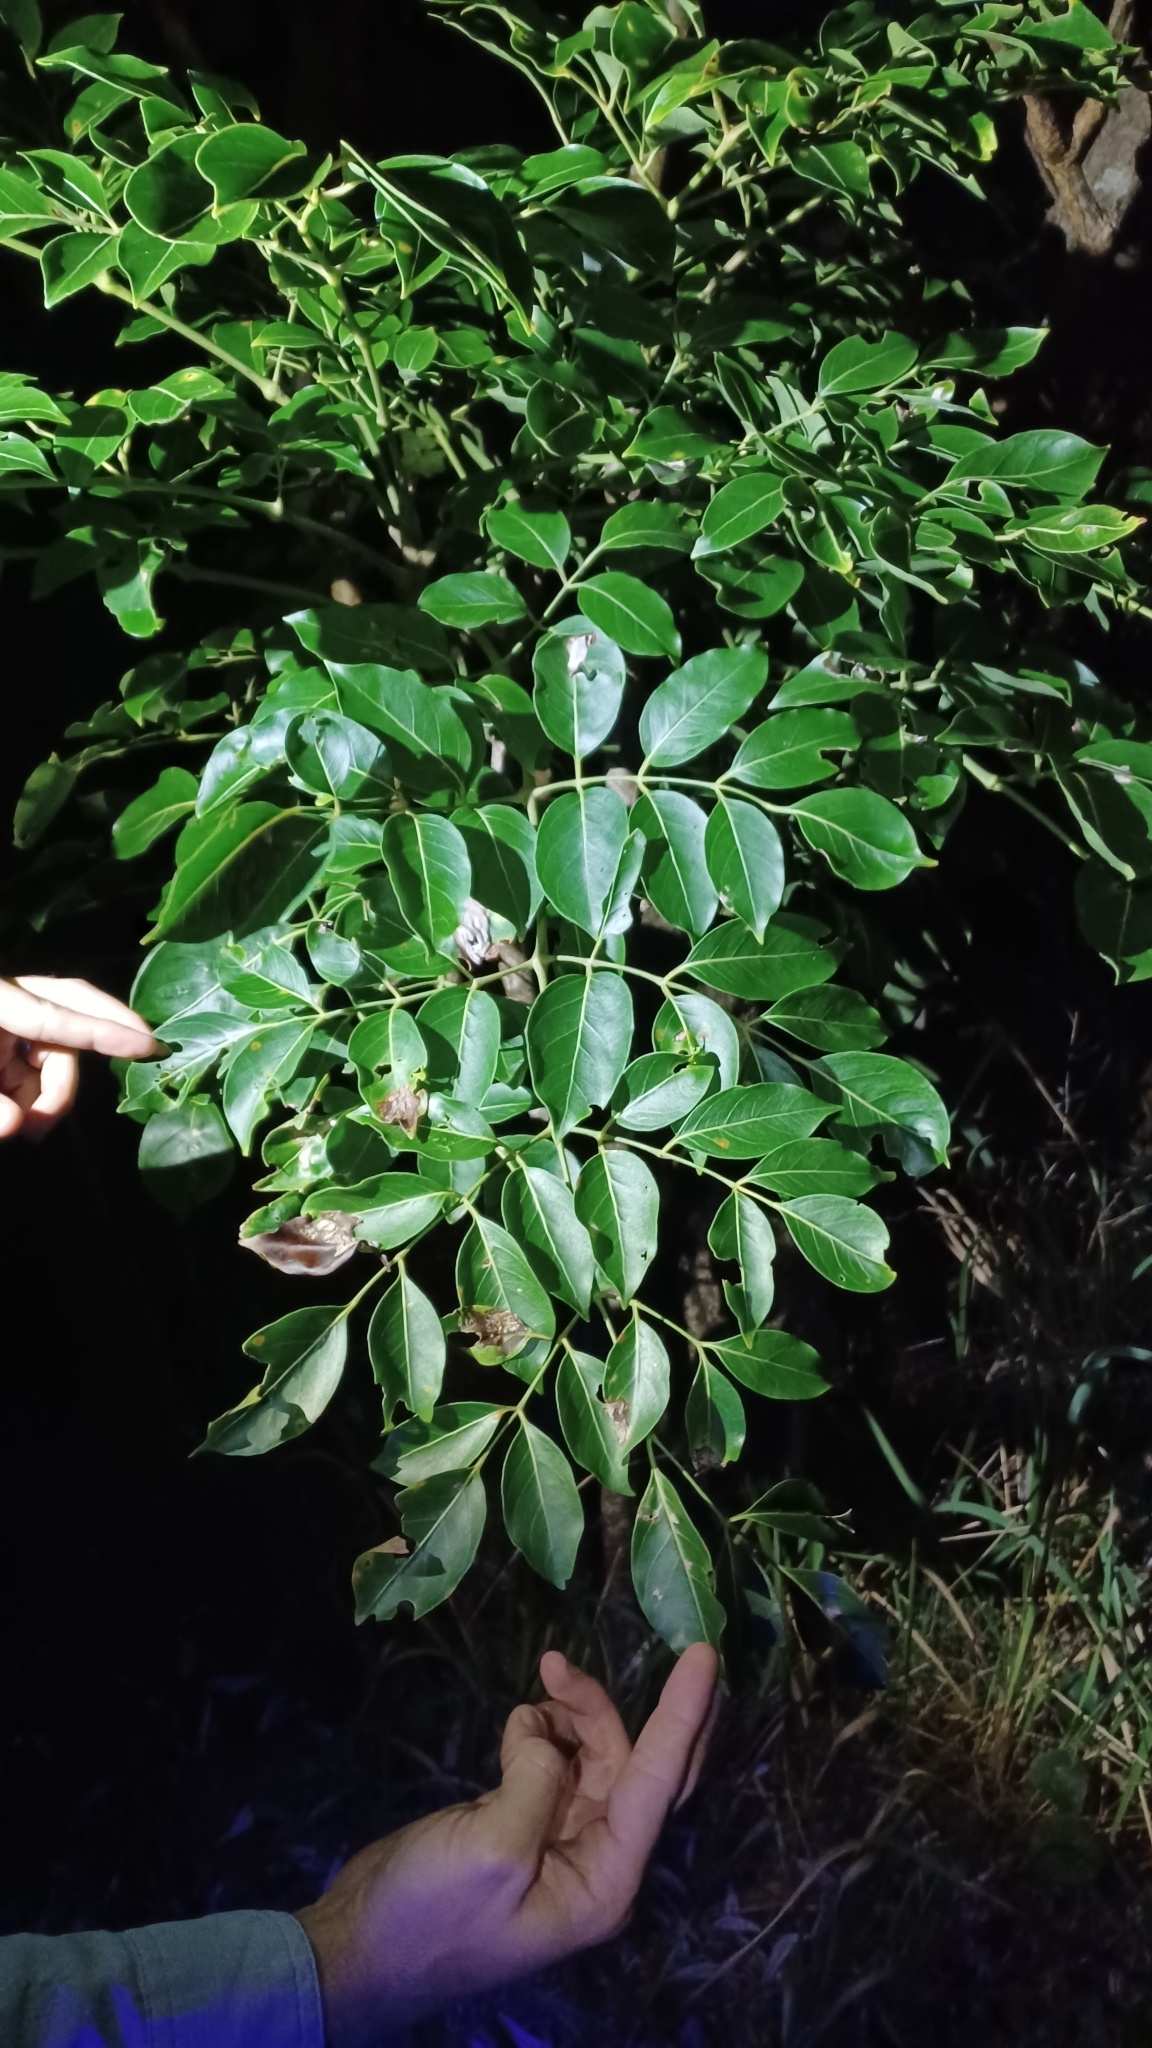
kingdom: Plantae
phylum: Tracheophyta
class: Magnoliopsida
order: Apiales
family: Araliaceae
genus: Polyscias
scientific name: Polyscias elegans
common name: Mowbulan whitewood
